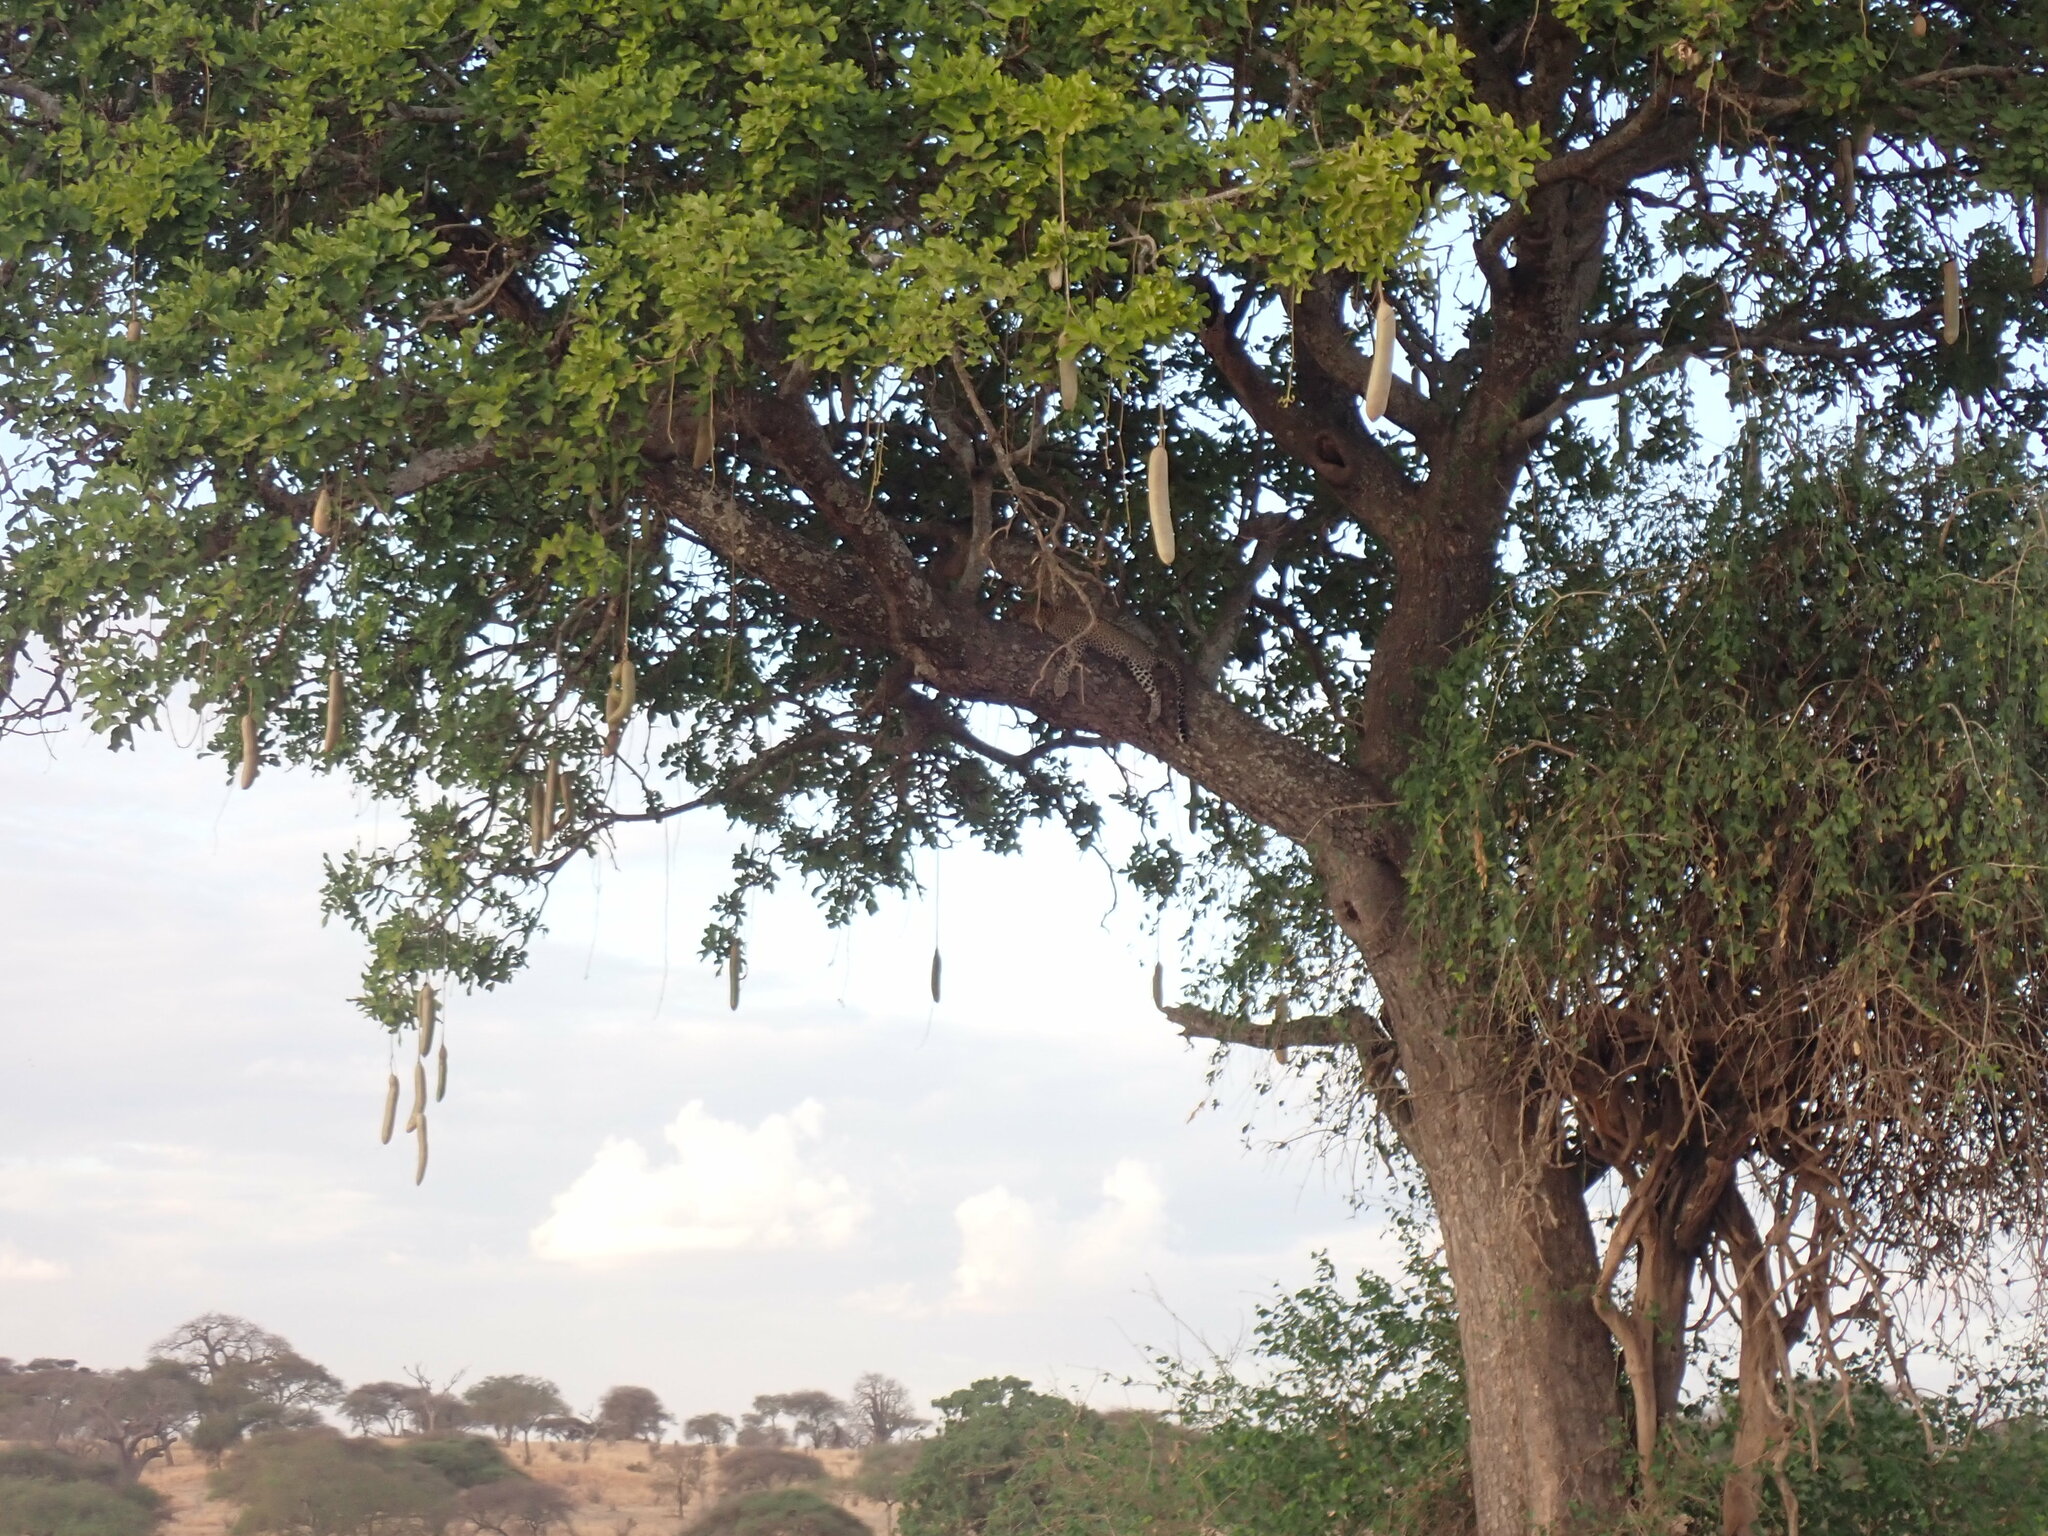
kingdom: Animalia
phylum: Chordata
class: Mammalia
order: Carnivora
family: Felidae
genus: Panthera
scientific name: Panthera pardus
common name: Leopard
